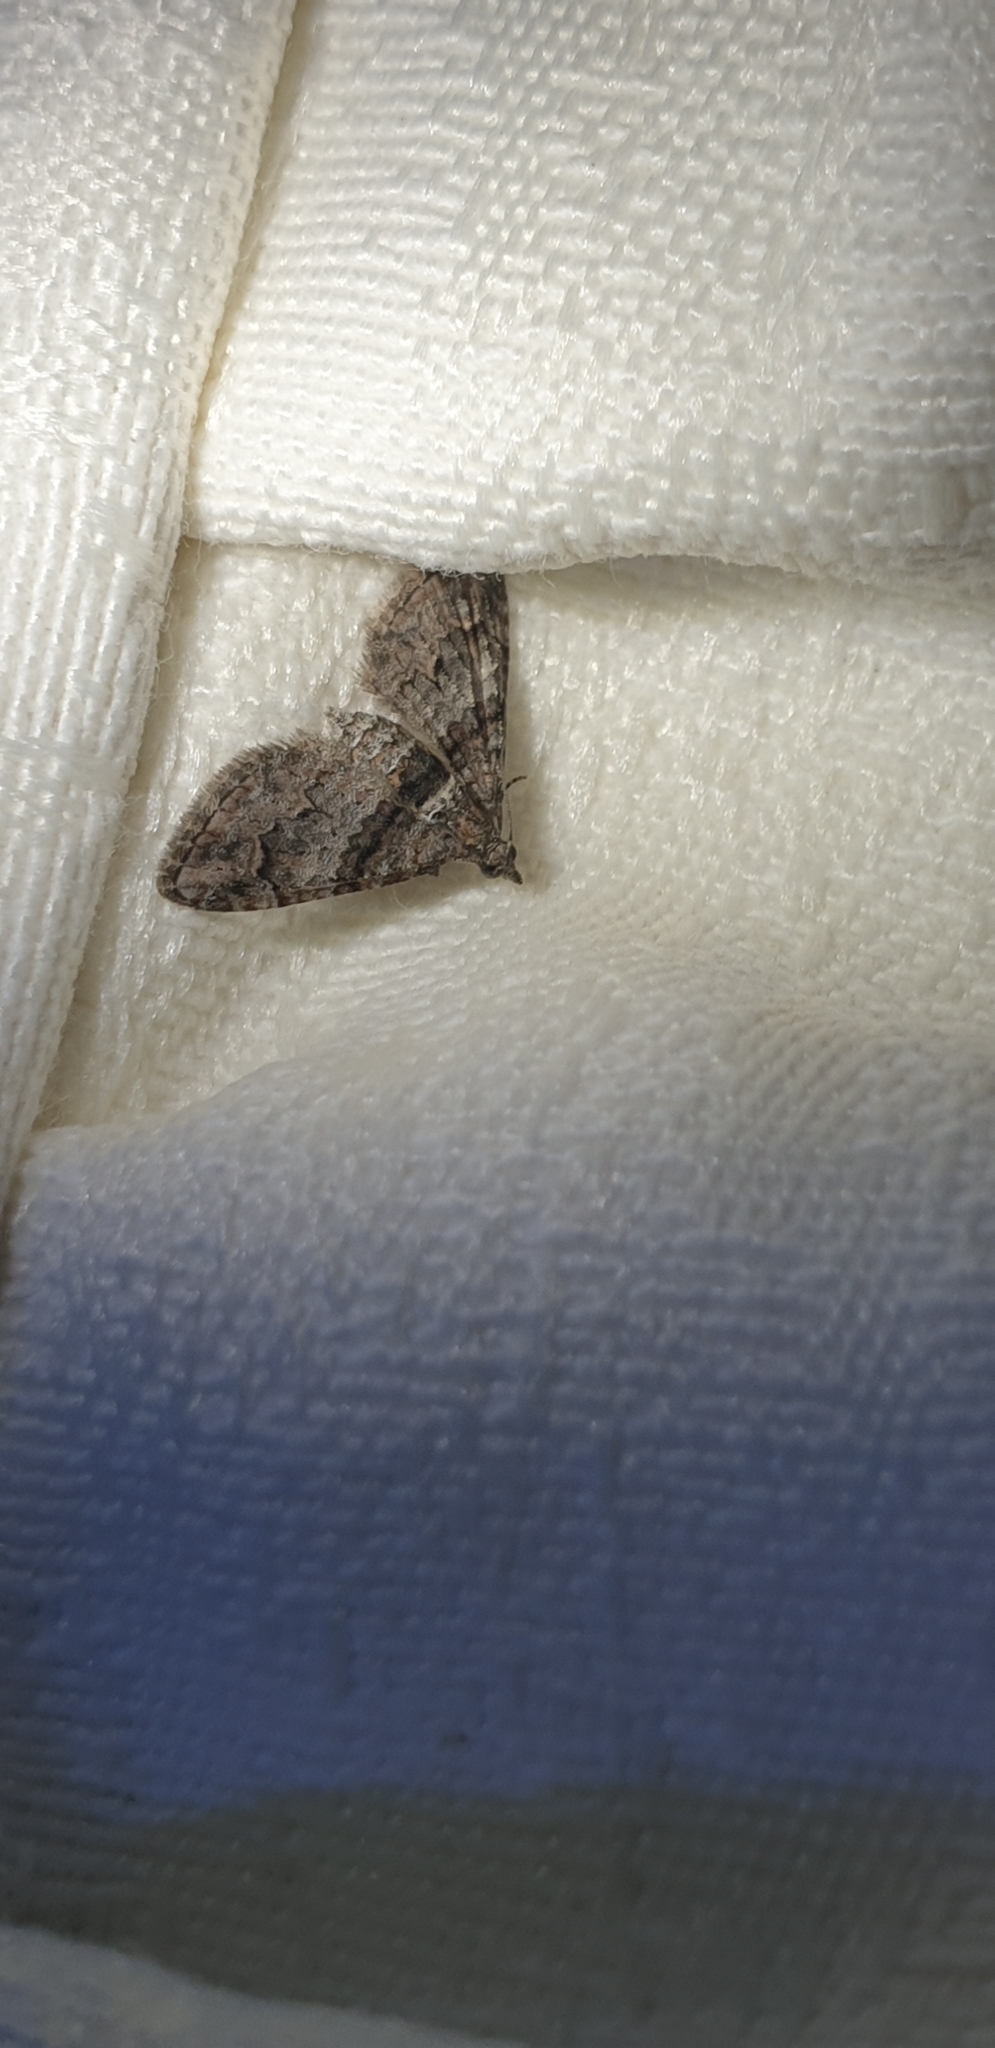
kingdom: Animalia
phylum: Arthropoda
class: Insecta
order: Lepidoptera
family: Geometridae
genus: Phrissogonus
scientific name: Phrissogonus laticostata
